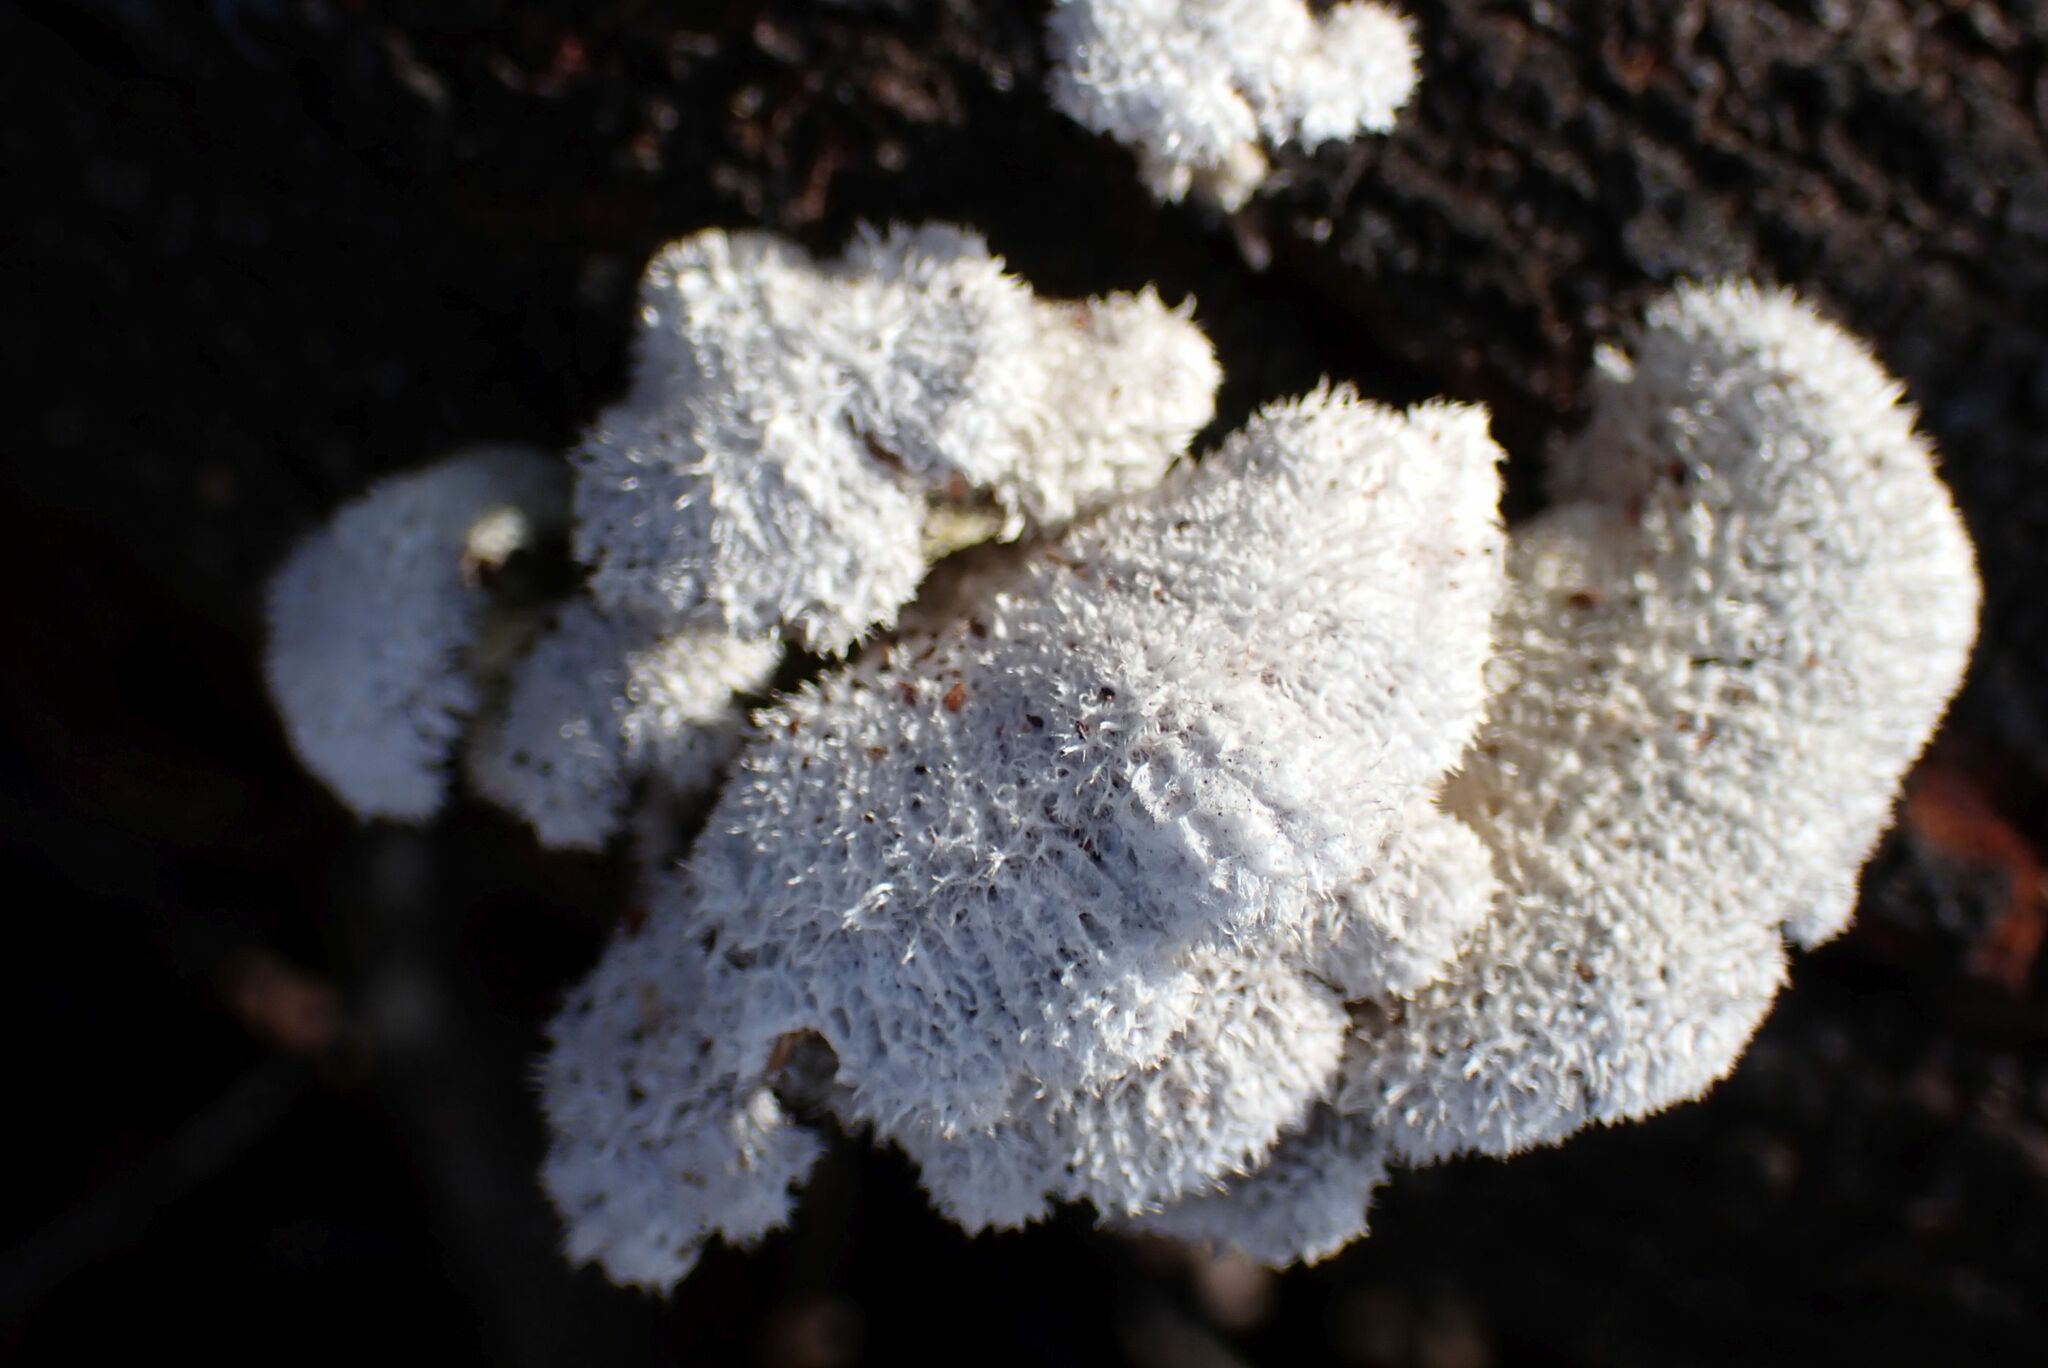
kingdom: Fungi
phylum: Basidiomycota
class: Agaricomycetes
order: Agaricales
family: Schizophyllaceae
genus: Schizophyllum
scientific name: Schizophyllum commune
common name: Common porecrust
